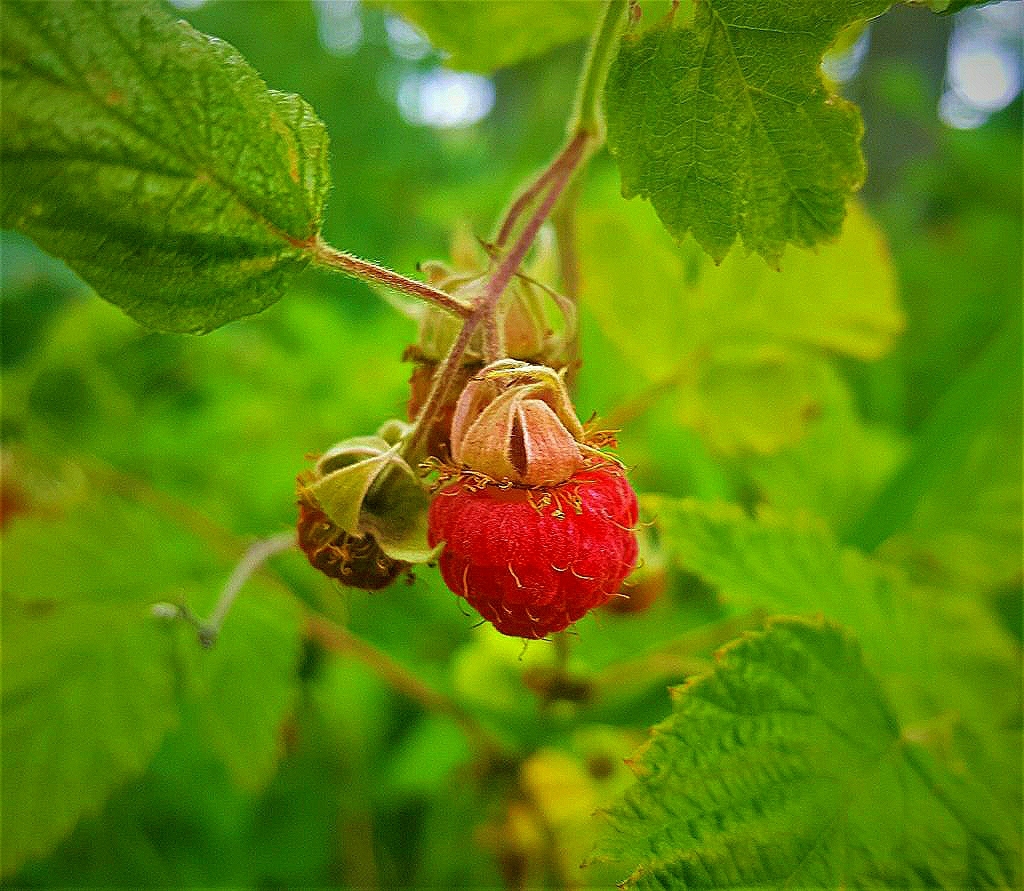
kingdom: Plantae
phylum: Tracheophyta
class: Magnoliopsida
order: Rosales
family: Rosaceae
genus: Rubus
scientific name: Rubus idaeus
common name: Raspberry
